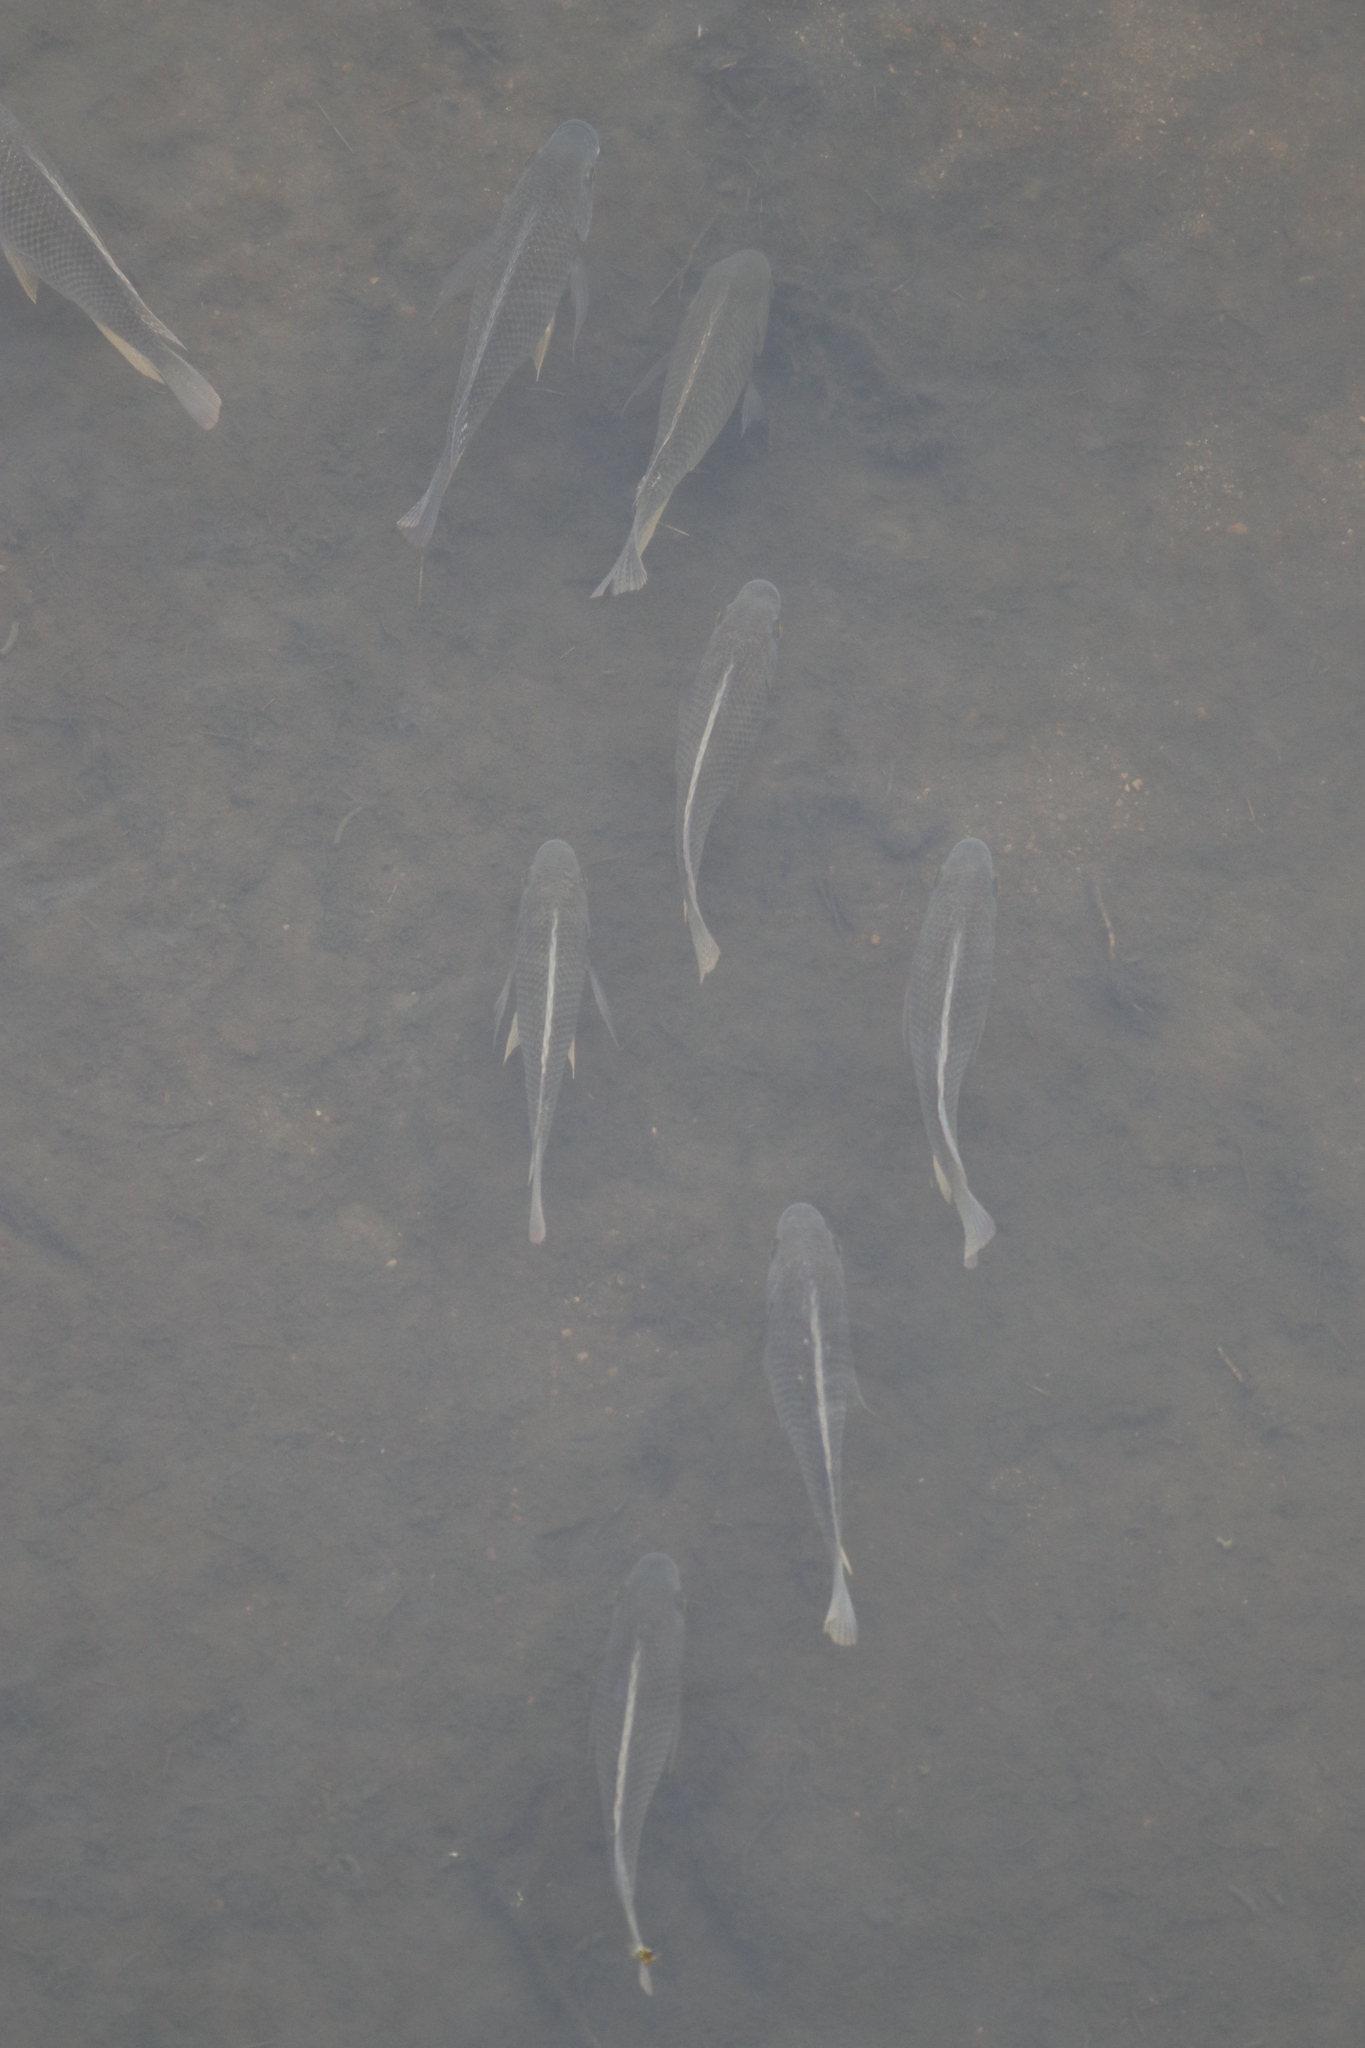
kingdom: Animalia
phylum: Chordata
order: Perciformes
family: Cichlidae
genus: Oreochromis
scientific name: Oreochromis mossambicus
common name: Mozambique tilapia
